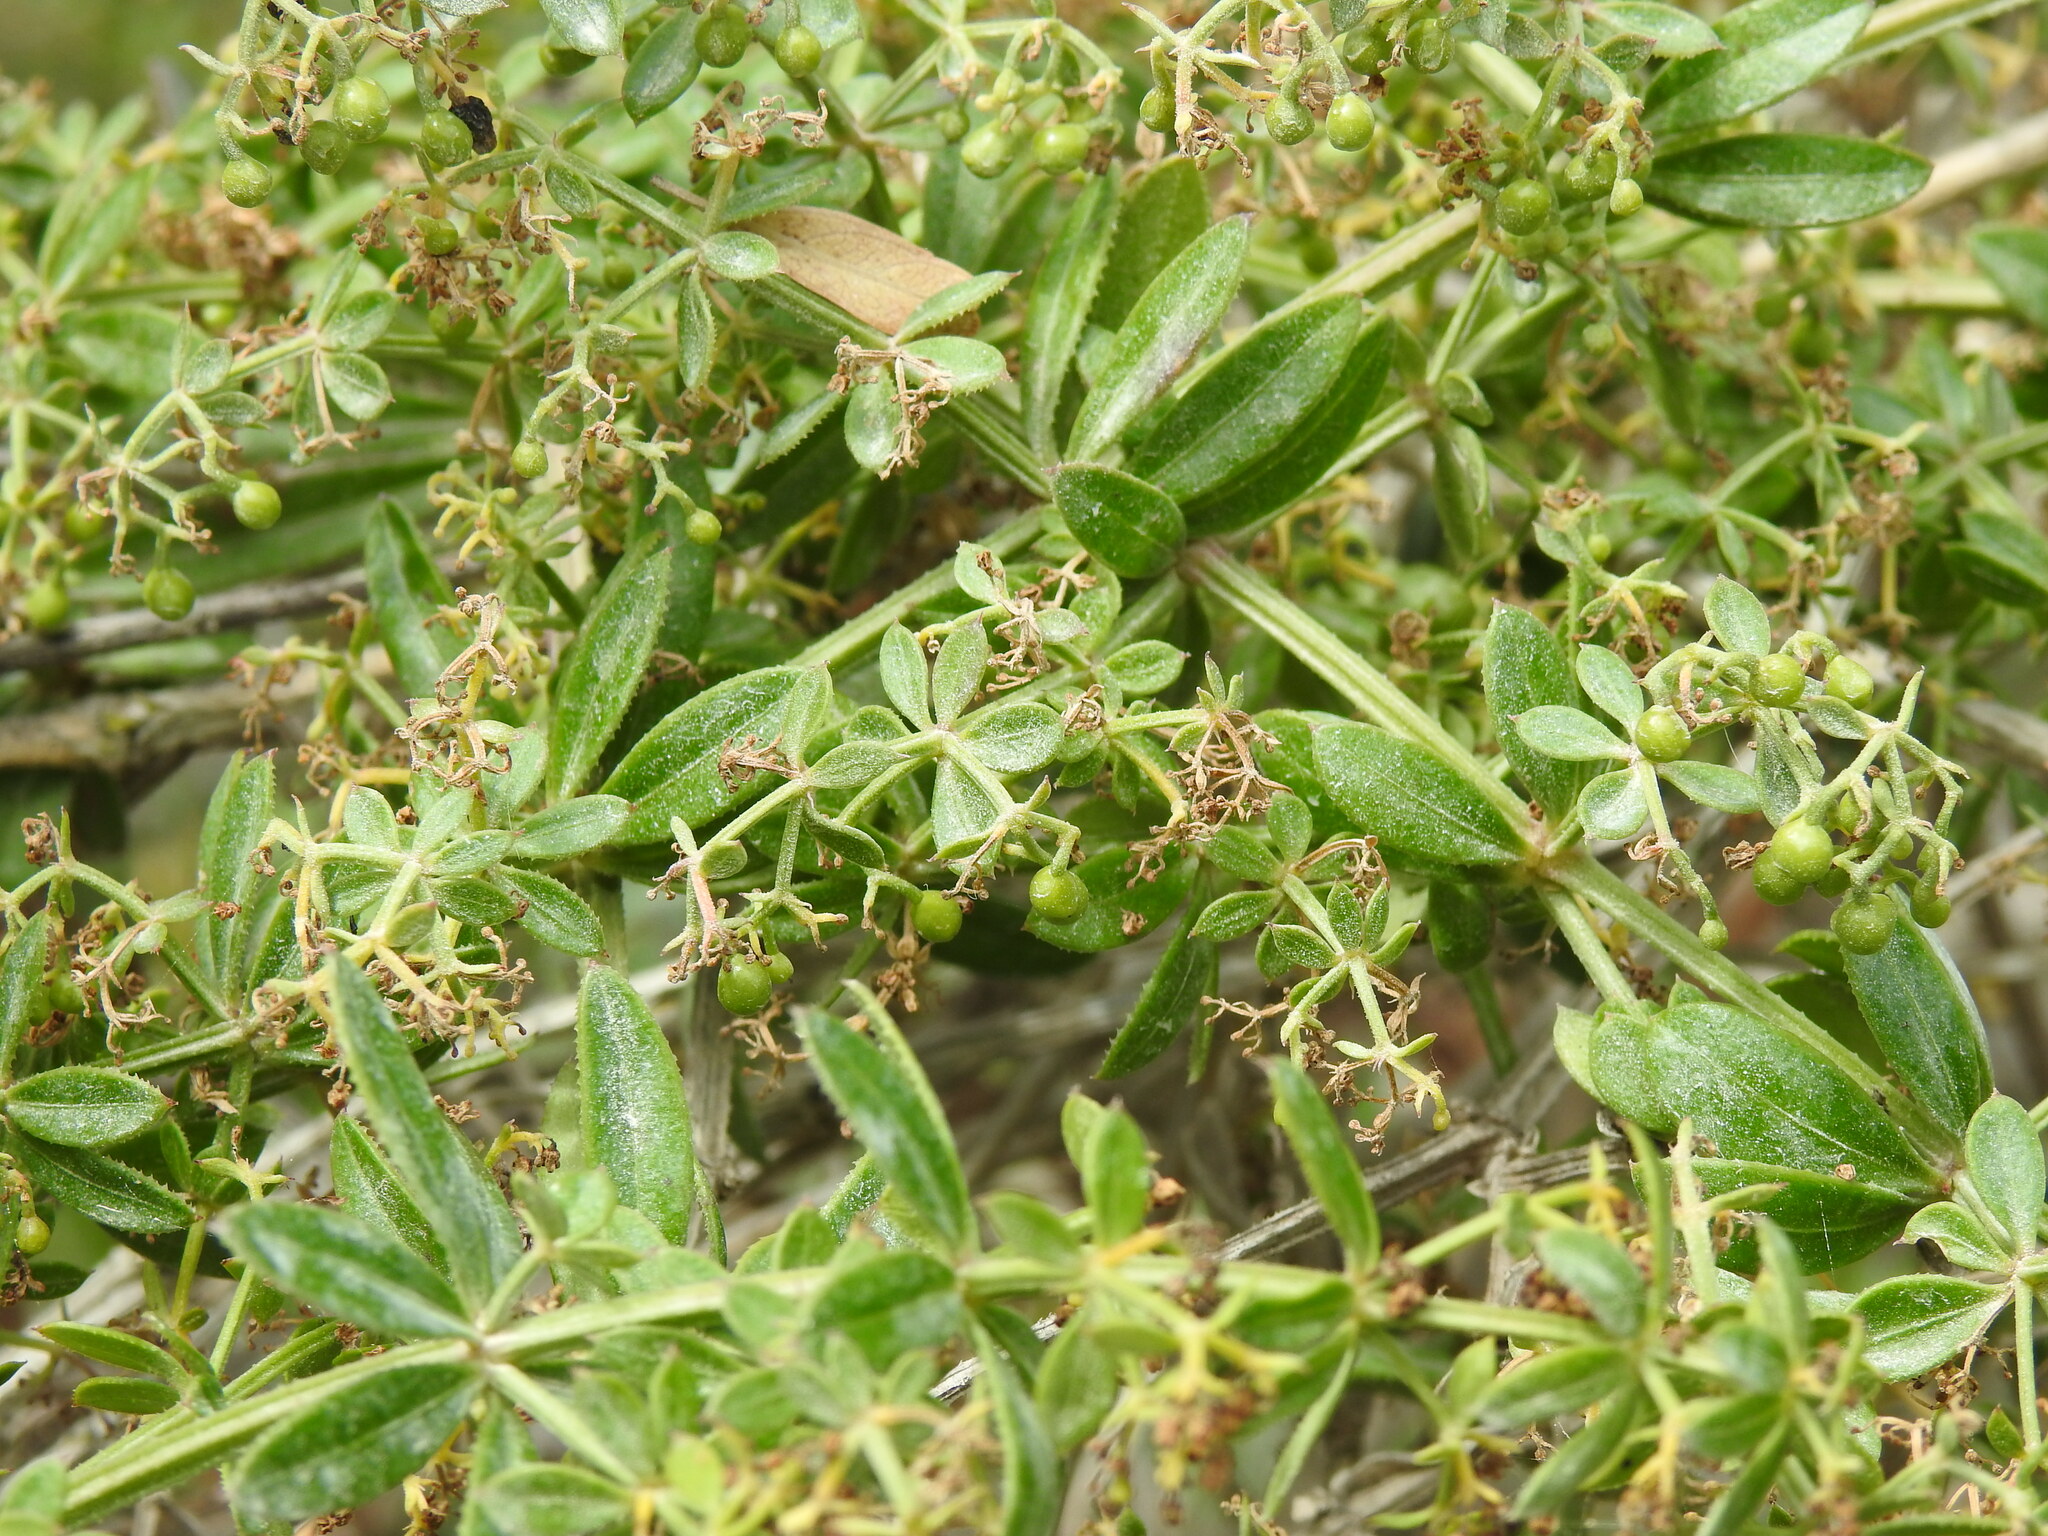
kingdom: Plantae
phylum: Tracheophyta
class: Magnoliopsida
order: Gentianales
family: Rubiaceae
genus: Rubia
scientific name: Rubia peregrina
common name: Wild madder
